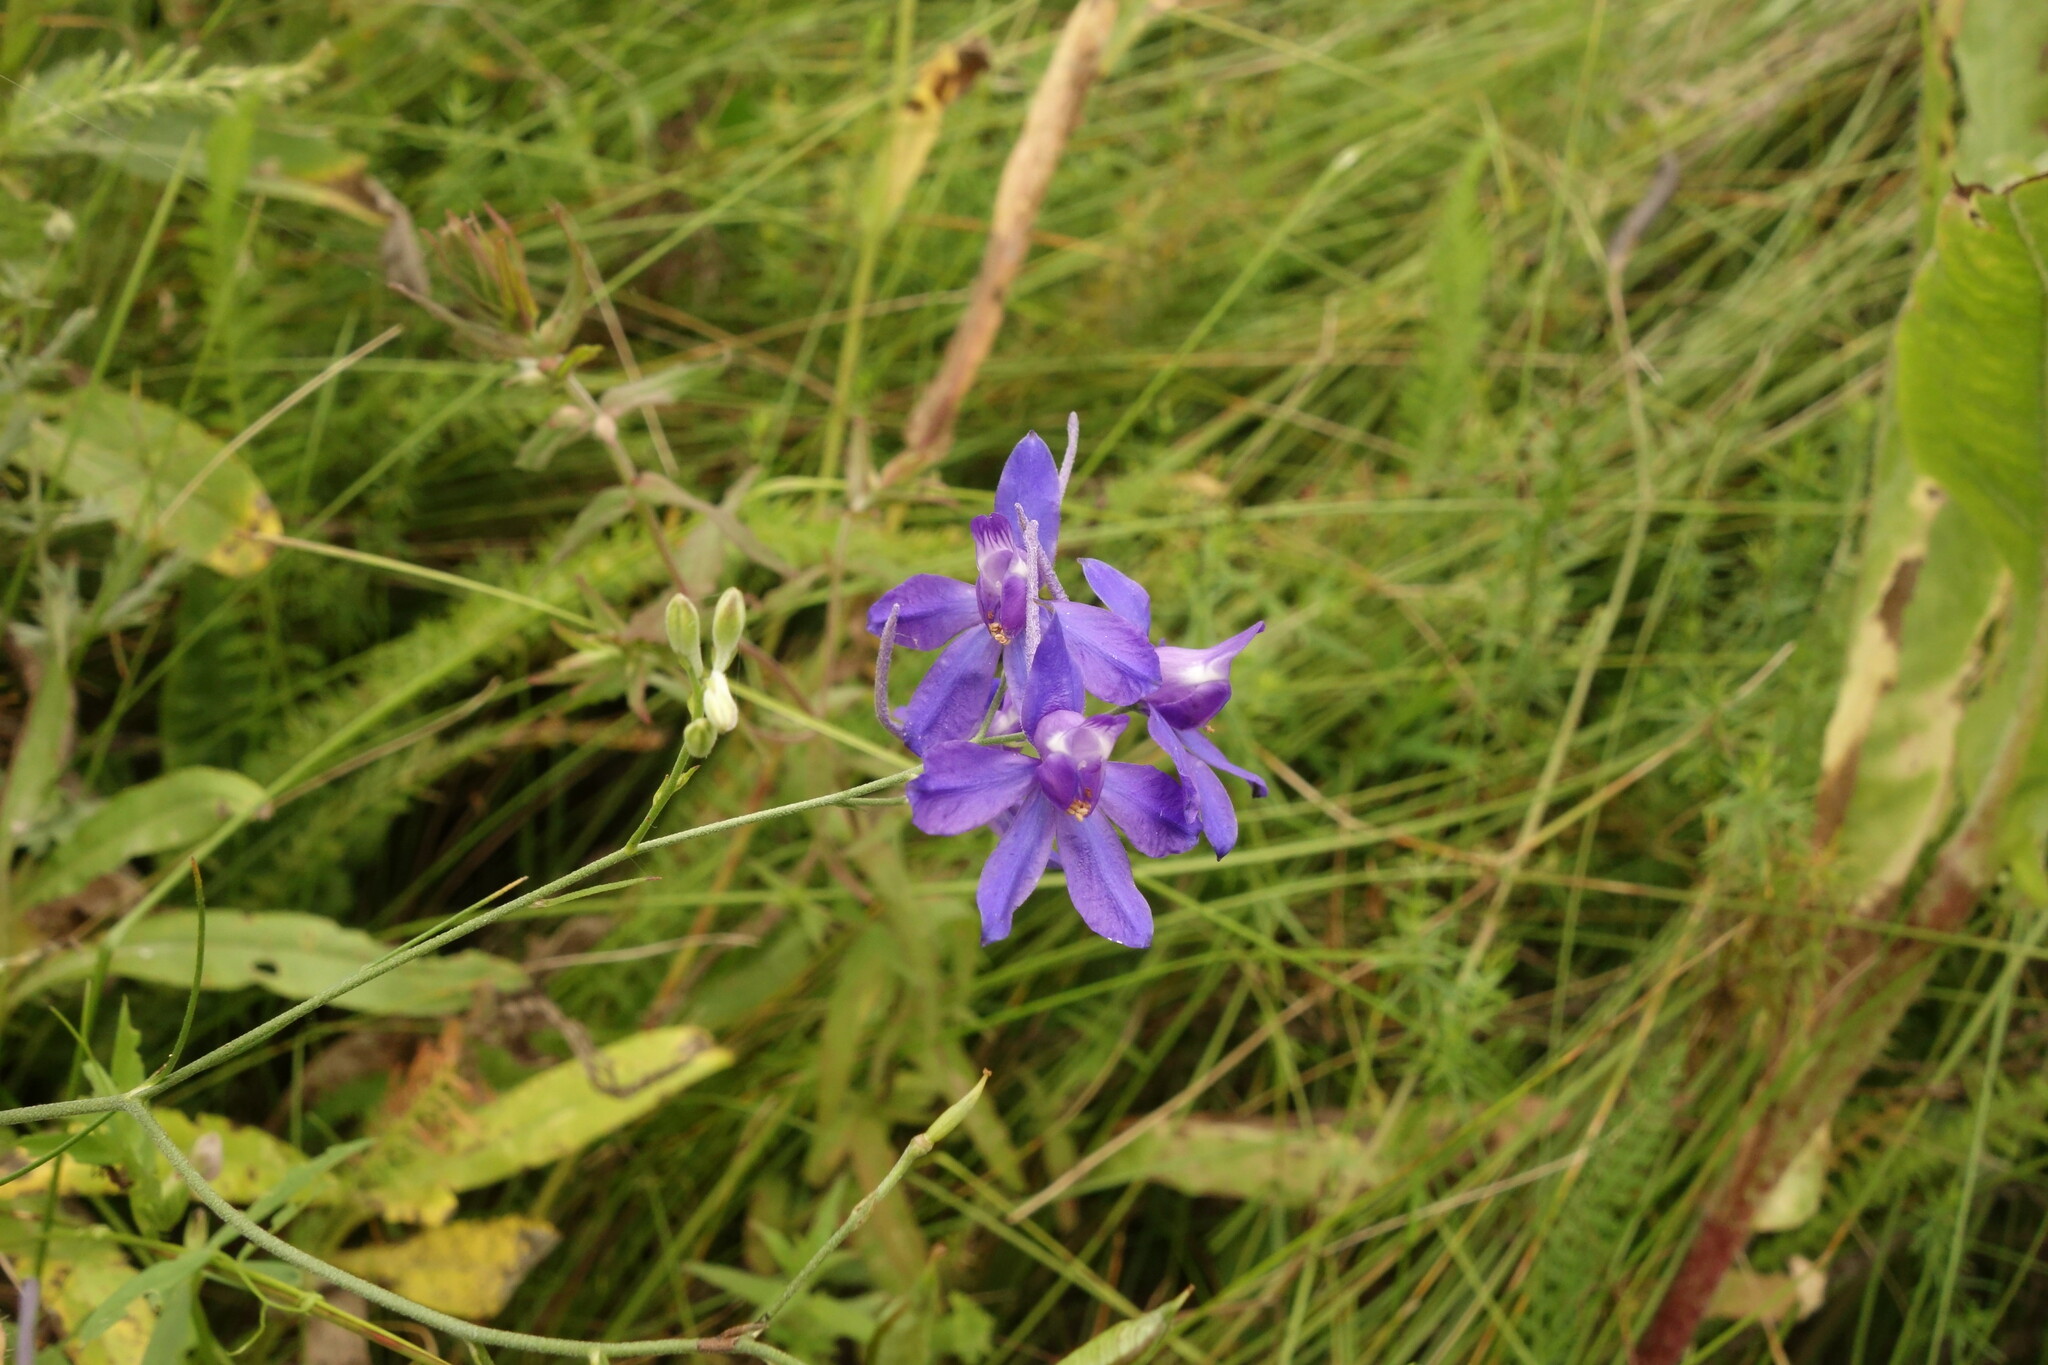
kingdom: Plantae
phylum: Tracheophyta
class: Magnoliopsida
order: Ranunculales
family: Ranunculaceae
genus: Delphinium
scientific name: Delphinium consolida
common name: Branching larkspur
